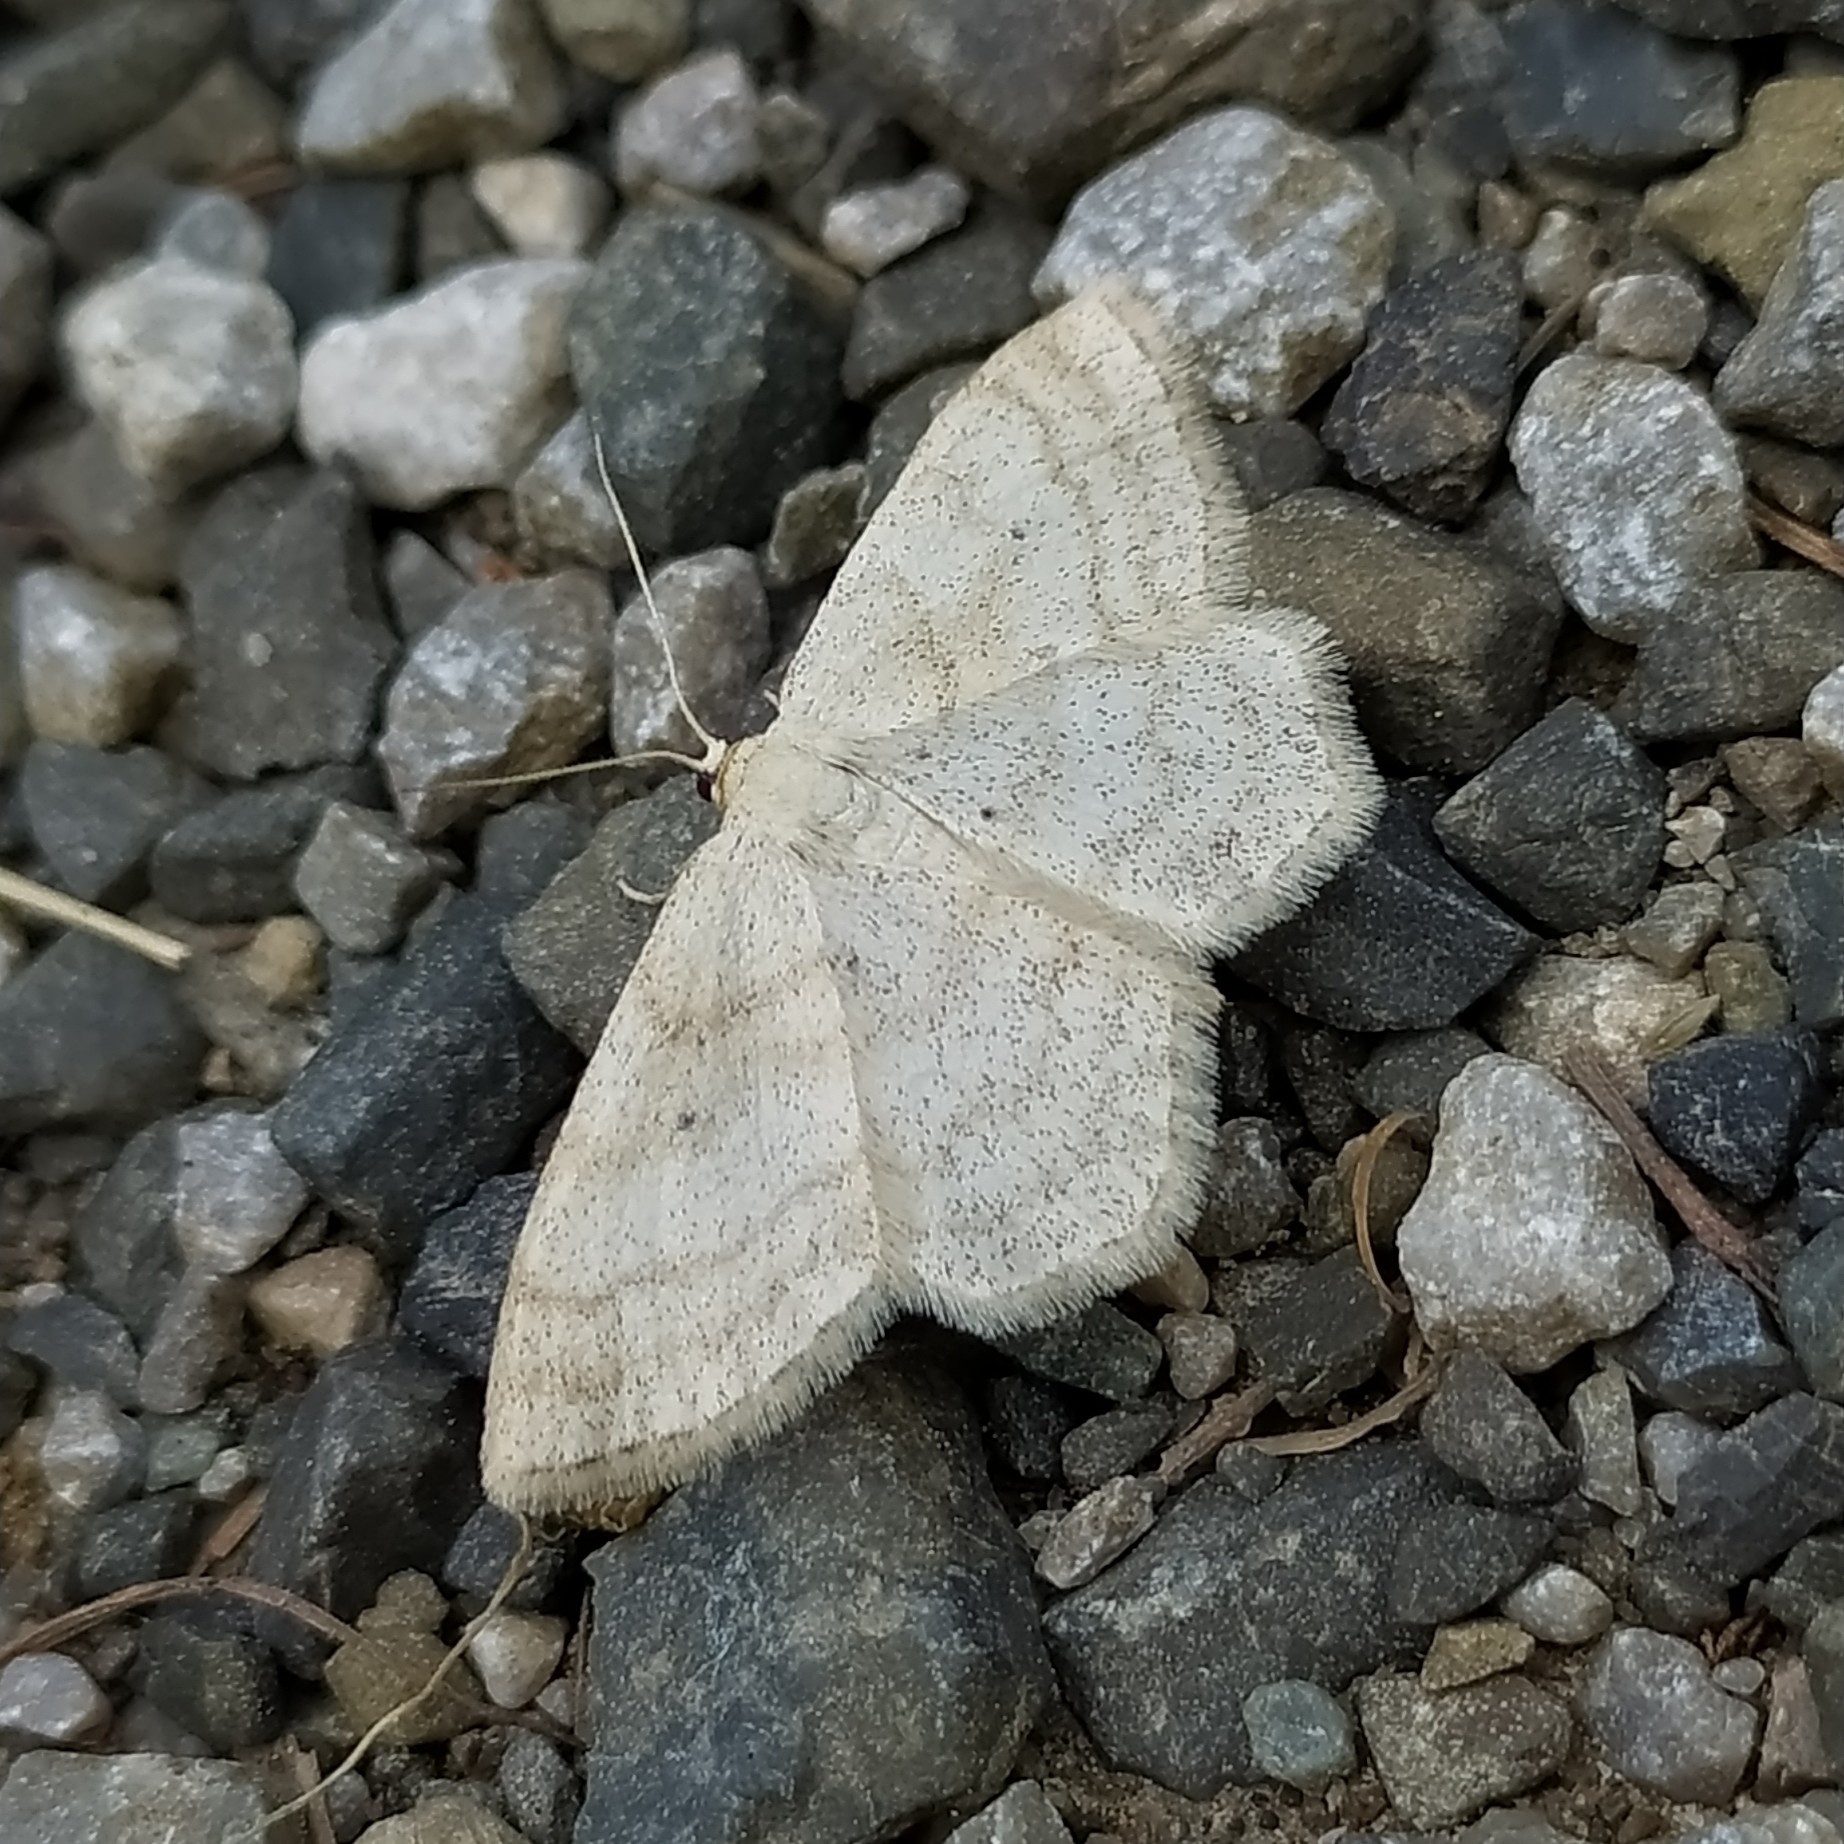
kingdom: Animalia
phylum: Arthropoda
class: Insecta
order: Lepidoptera
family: Geometridae
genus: Scopula
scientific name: Scopula ternata
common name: Smoky wave
